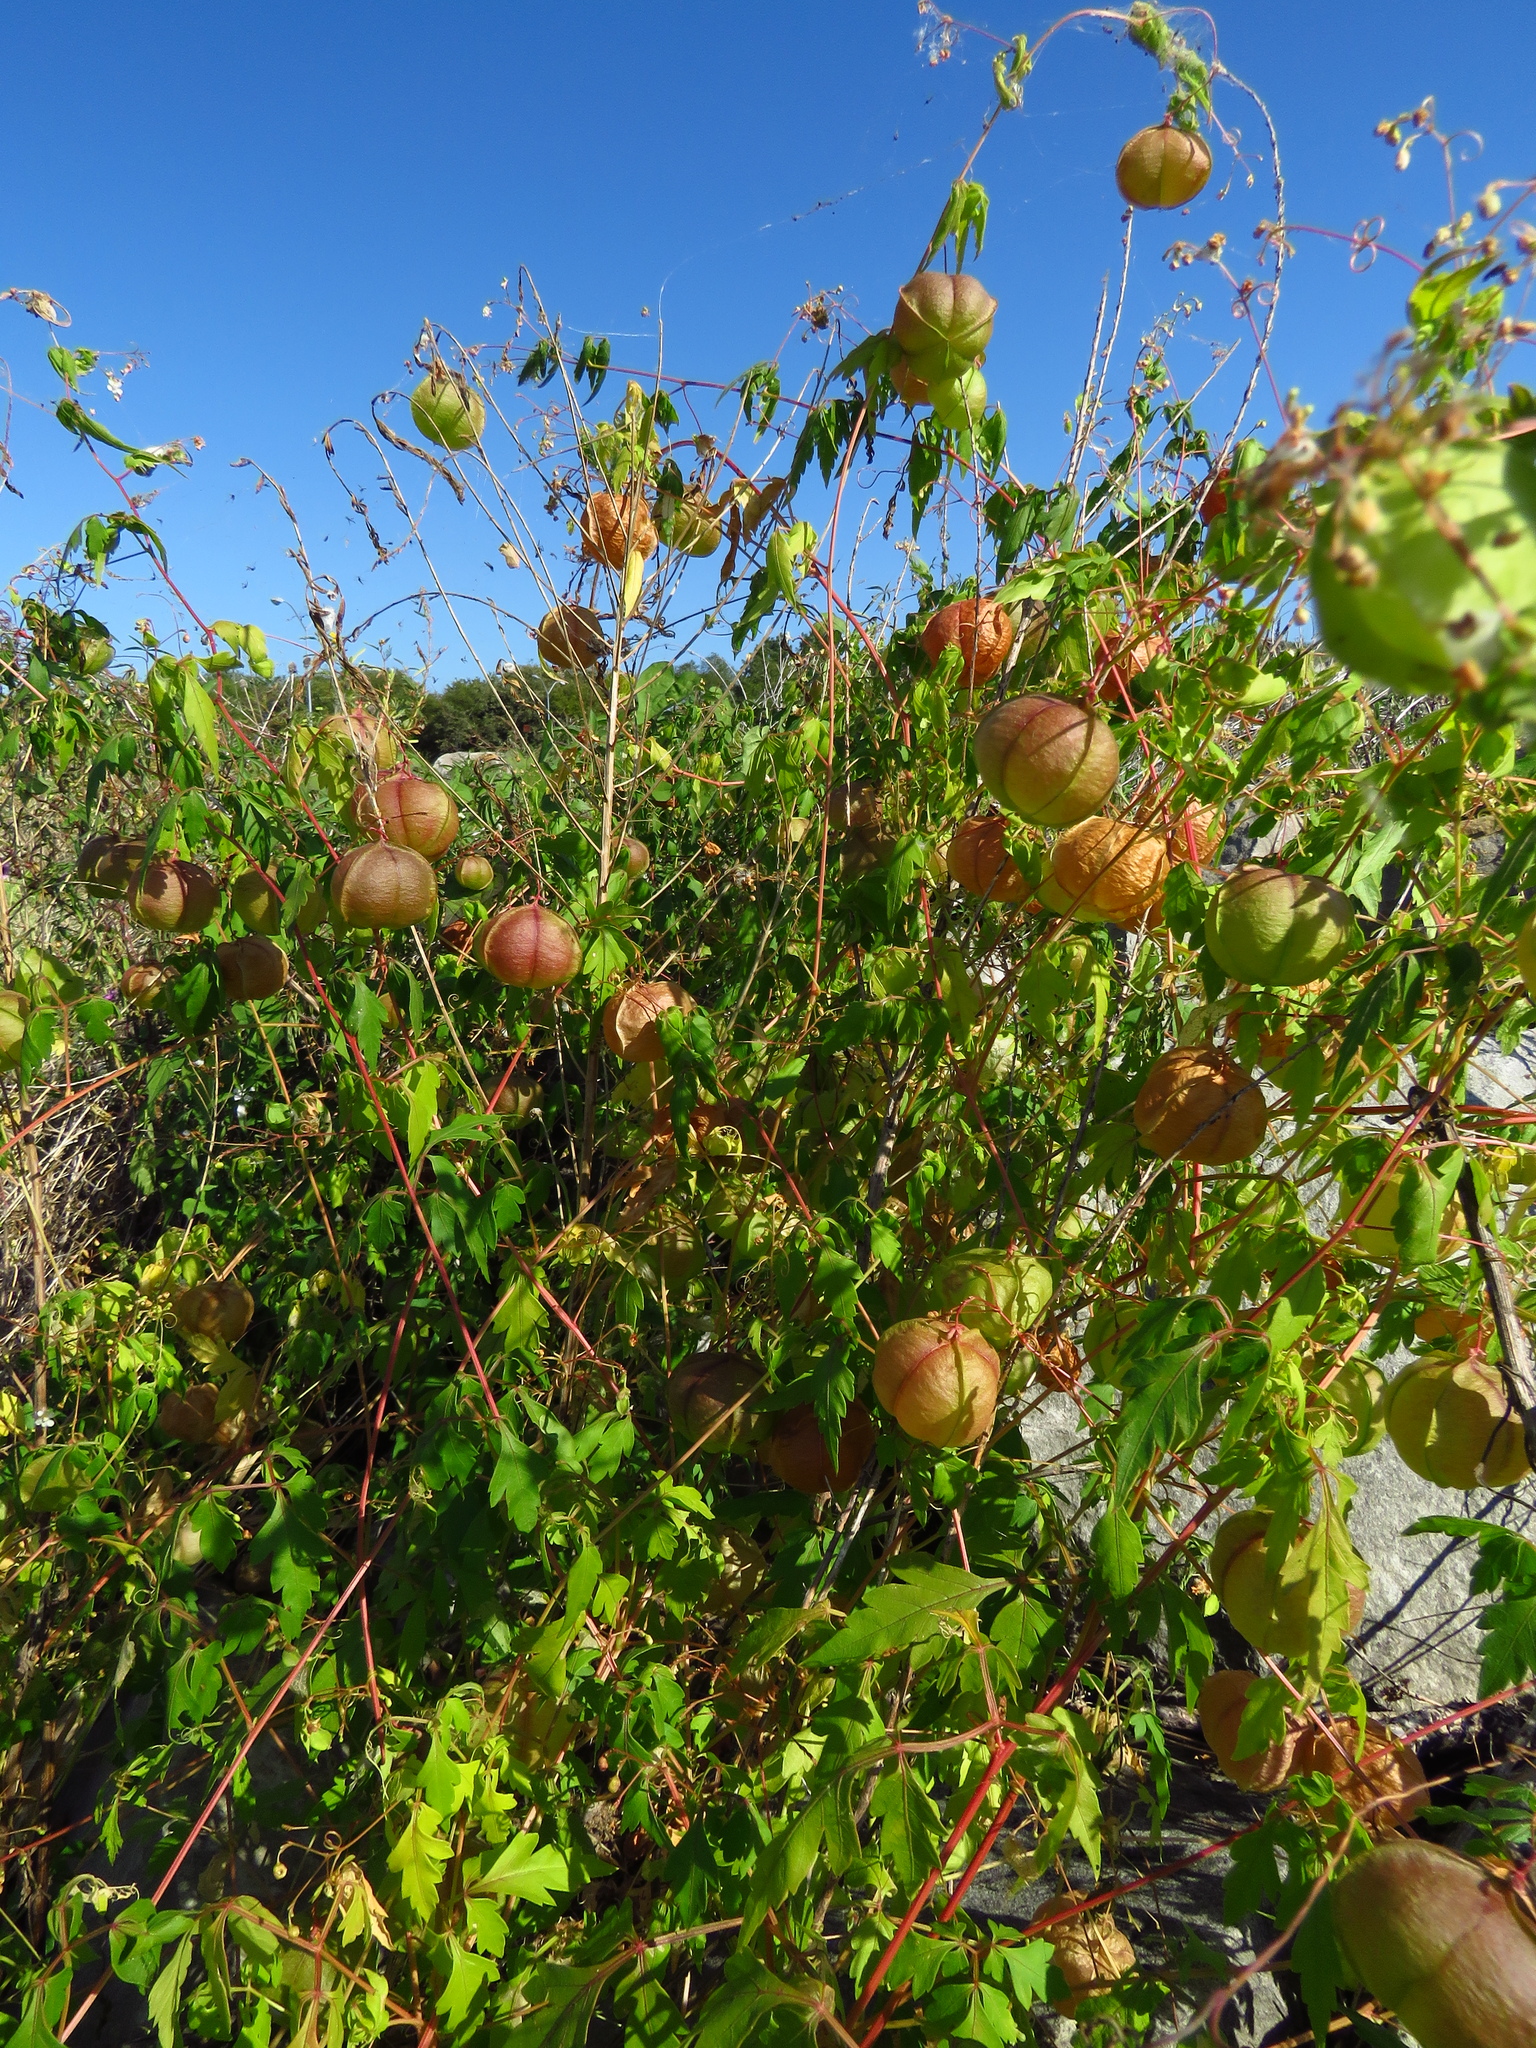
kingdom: Plantae
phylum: Tracheophyta
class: Magnoliopsida
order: Sapindales
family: Sapindaceae
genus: Cardiospermum
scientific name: Cardiospermum halicacabum
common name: Balloon vine
